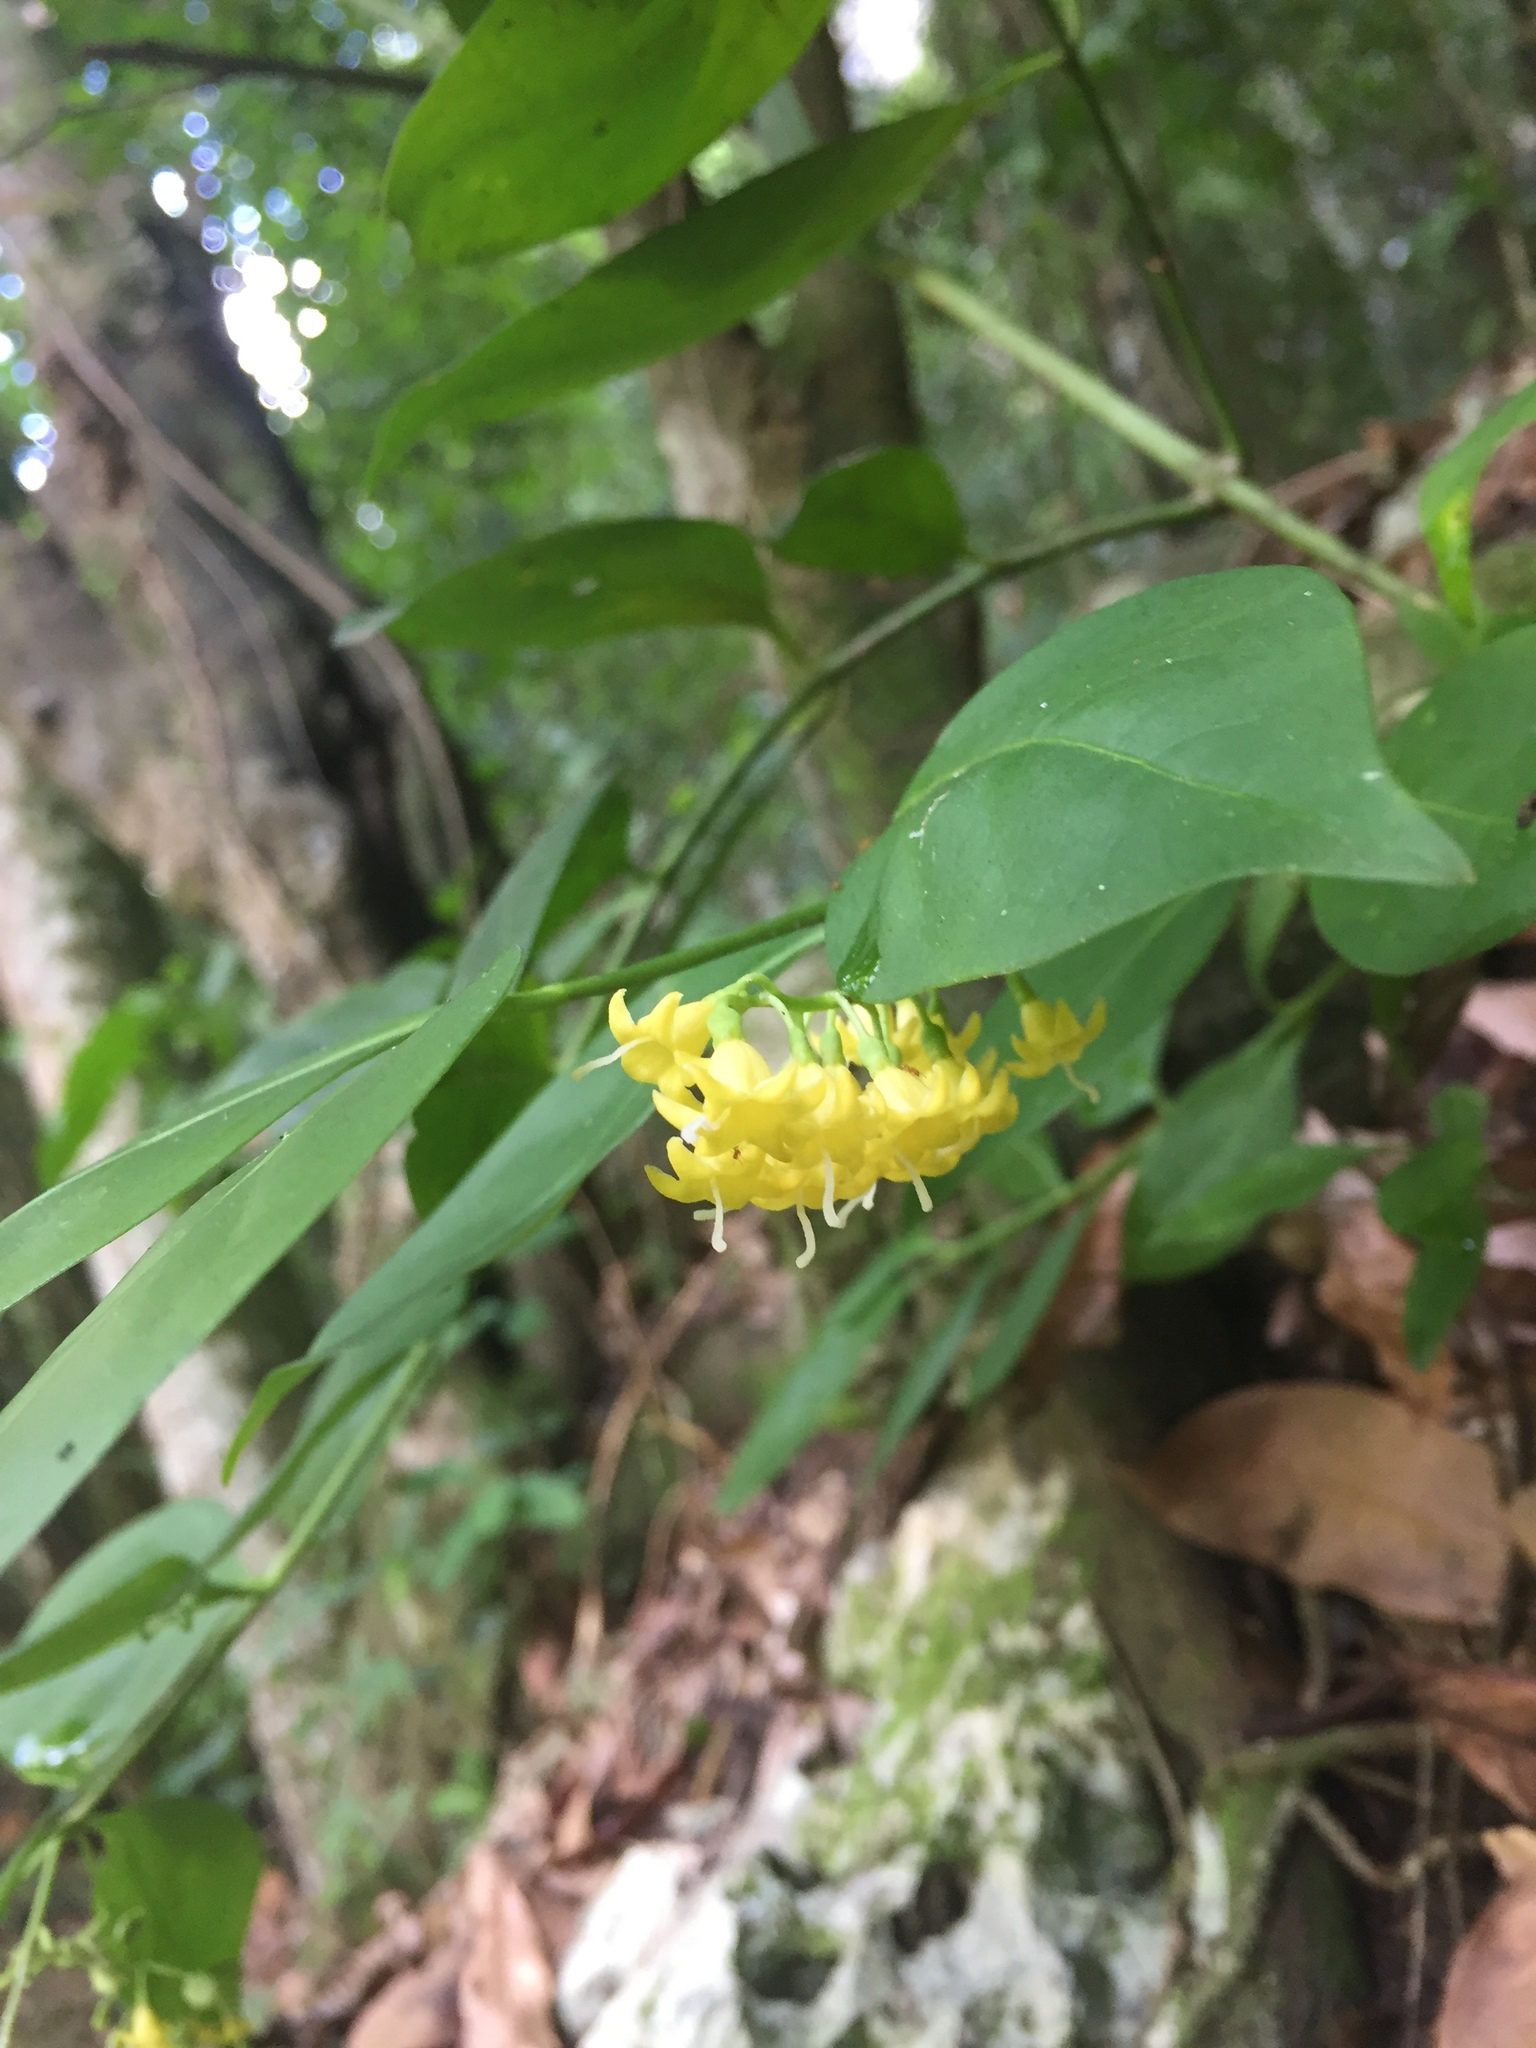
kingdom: Plantae
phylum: Tracheophyta
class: Magnoliopsida
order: Gentianales
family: Rubiaceae
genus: Chiococca
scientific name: Chiococca alba
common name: Snowberry
